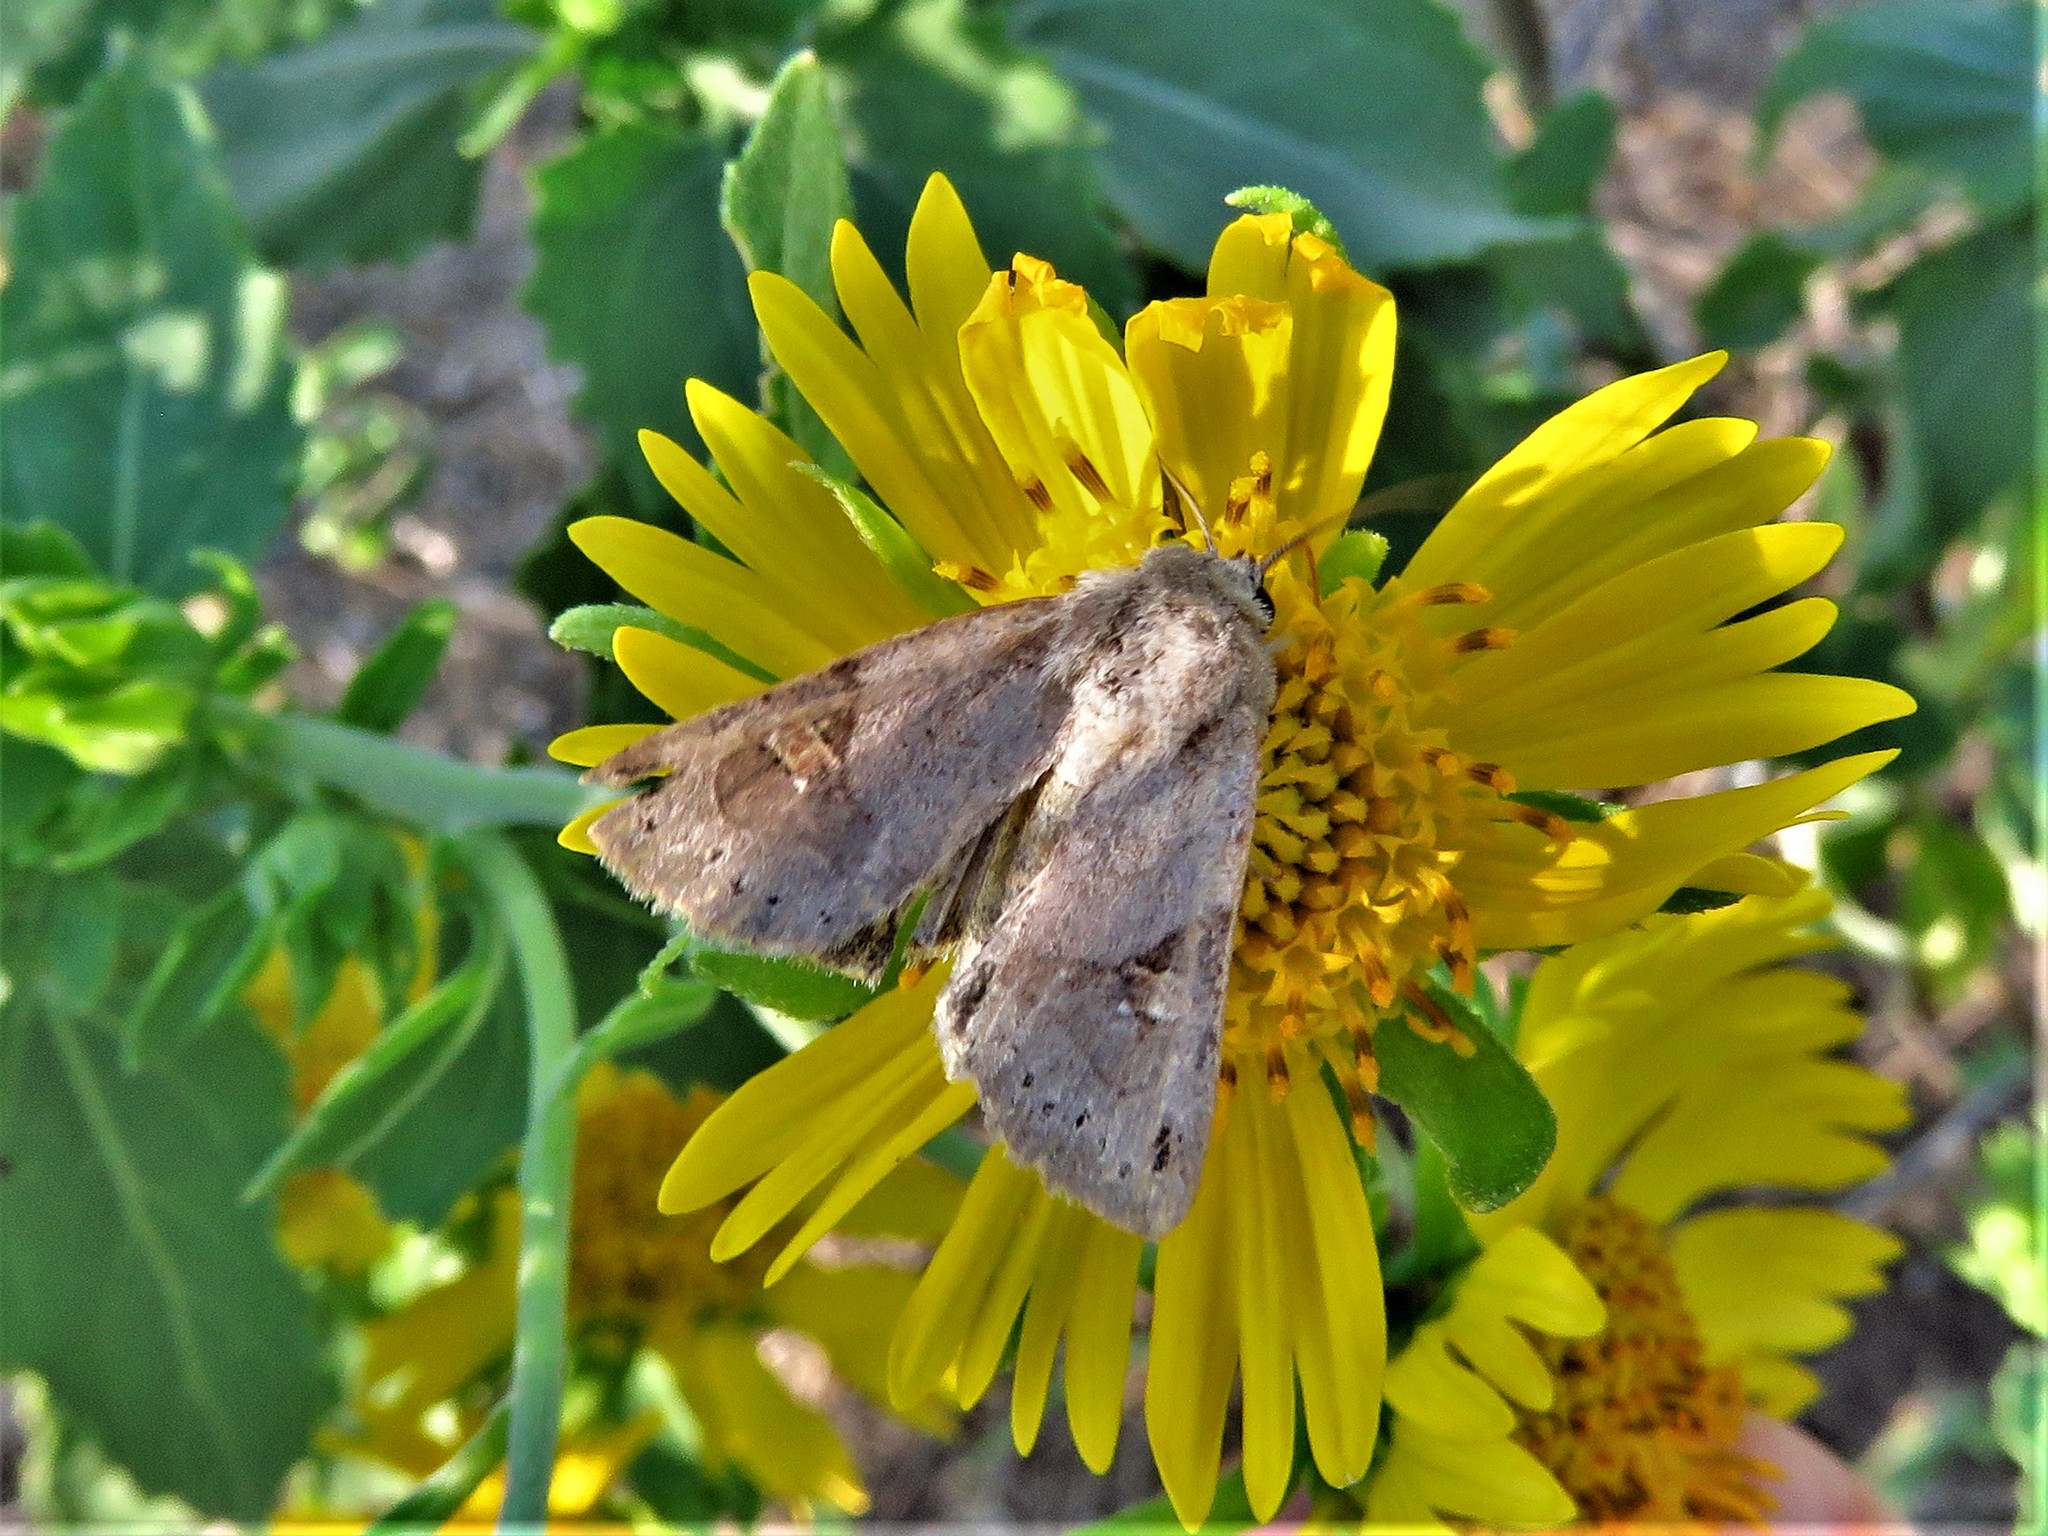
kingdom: Animalia
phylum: Arthropoda
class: Insecta
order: Lepidoptera
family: Noctuidae
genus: Ulolonche
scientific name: Ulolonche disticha
